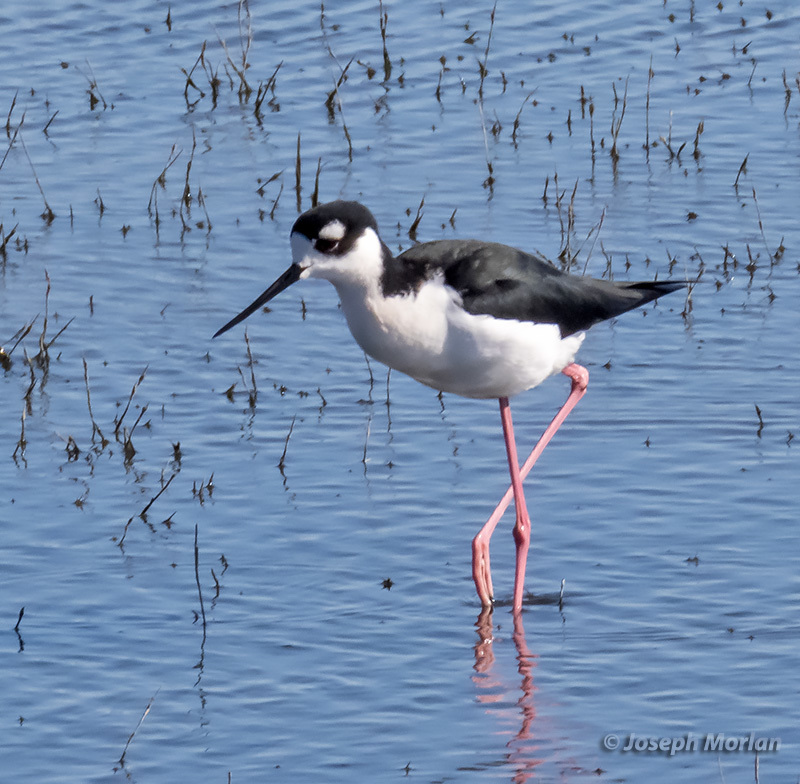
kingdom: Animalia
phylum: Chordata
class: Aves
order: Charadriiformes
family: Recurvirostridae
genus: Himantopus
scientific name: Himantopus mexicanus
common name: Black-necked stilt
